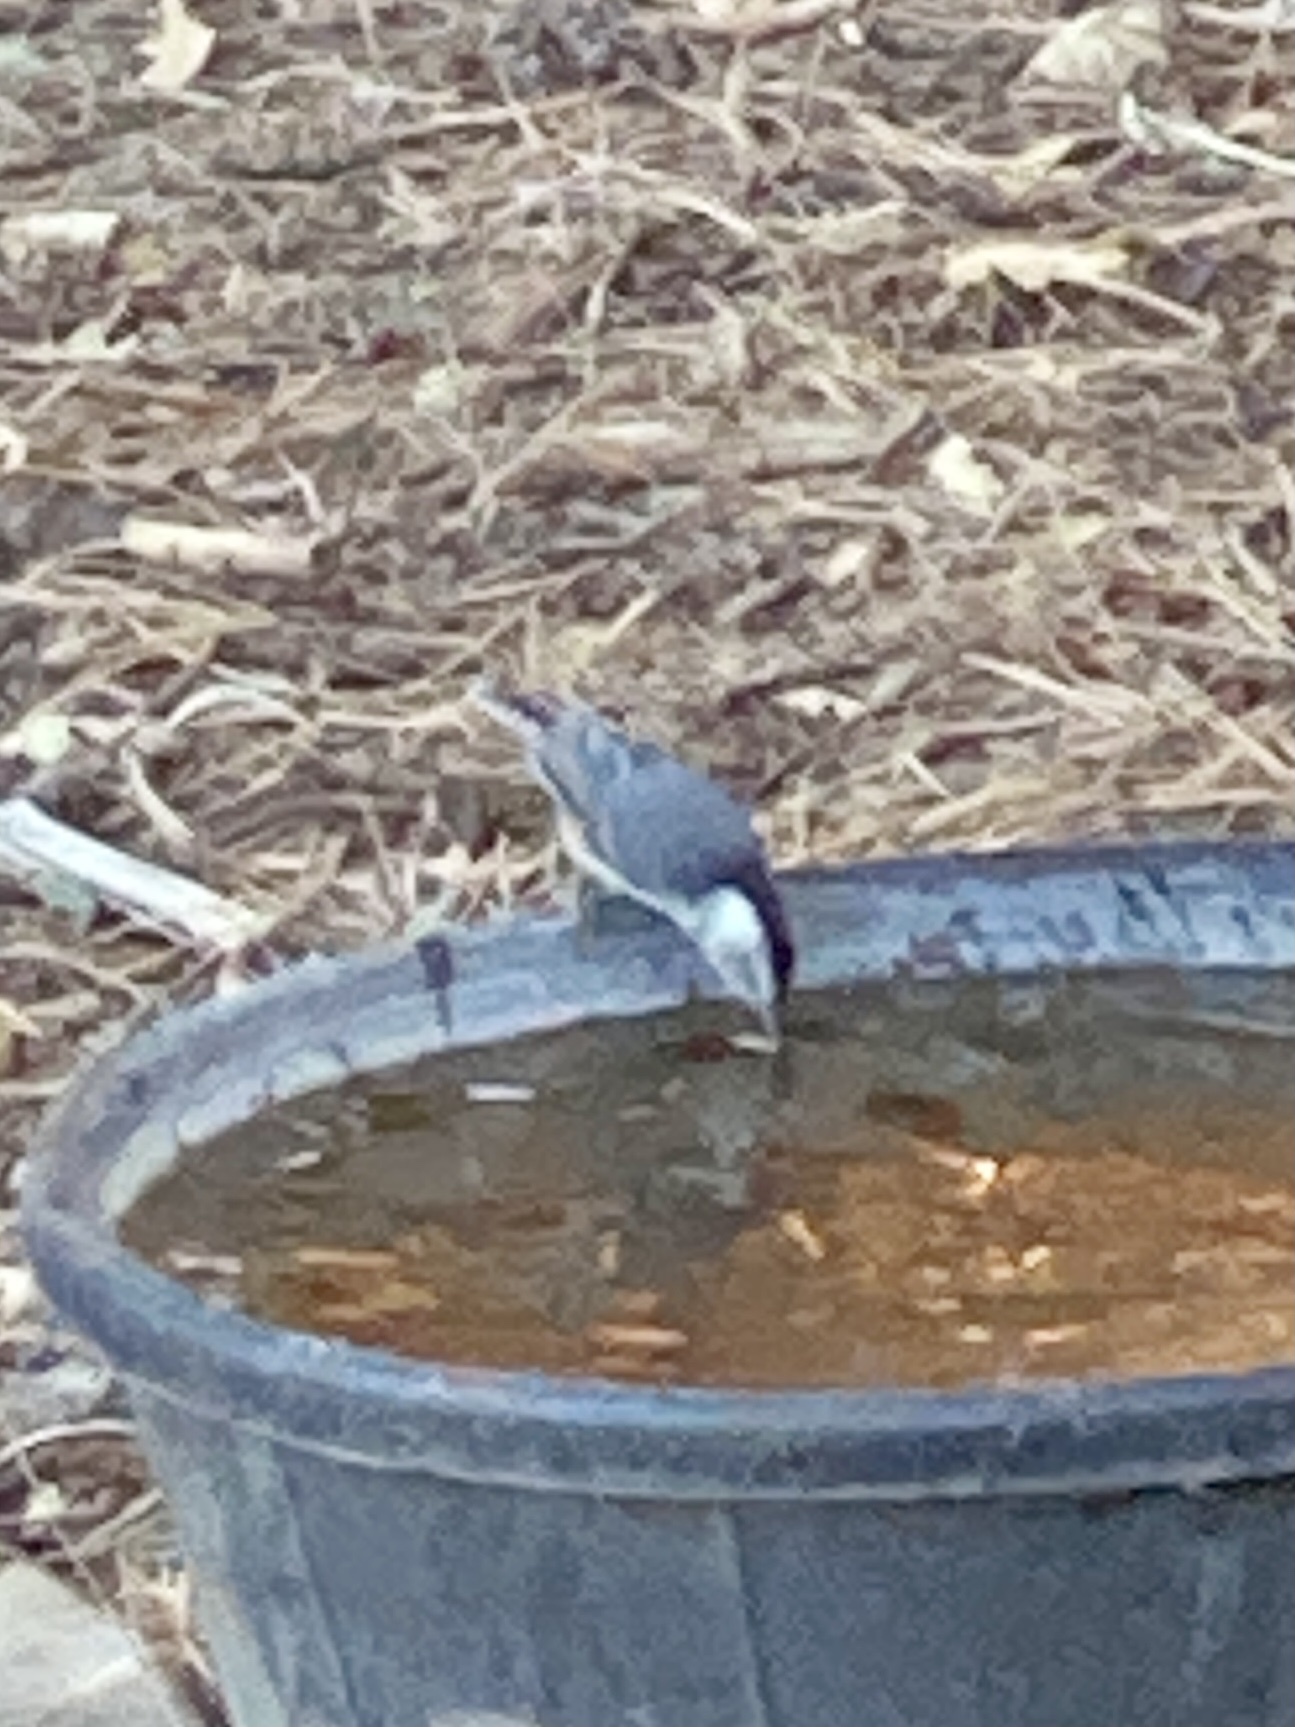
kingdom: Animalia
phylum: Chordata
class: Aves
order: Passeriformes
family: Sittidae
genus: Sitta
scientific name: Sitta carolinensis
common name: White-breasted nuthatch
